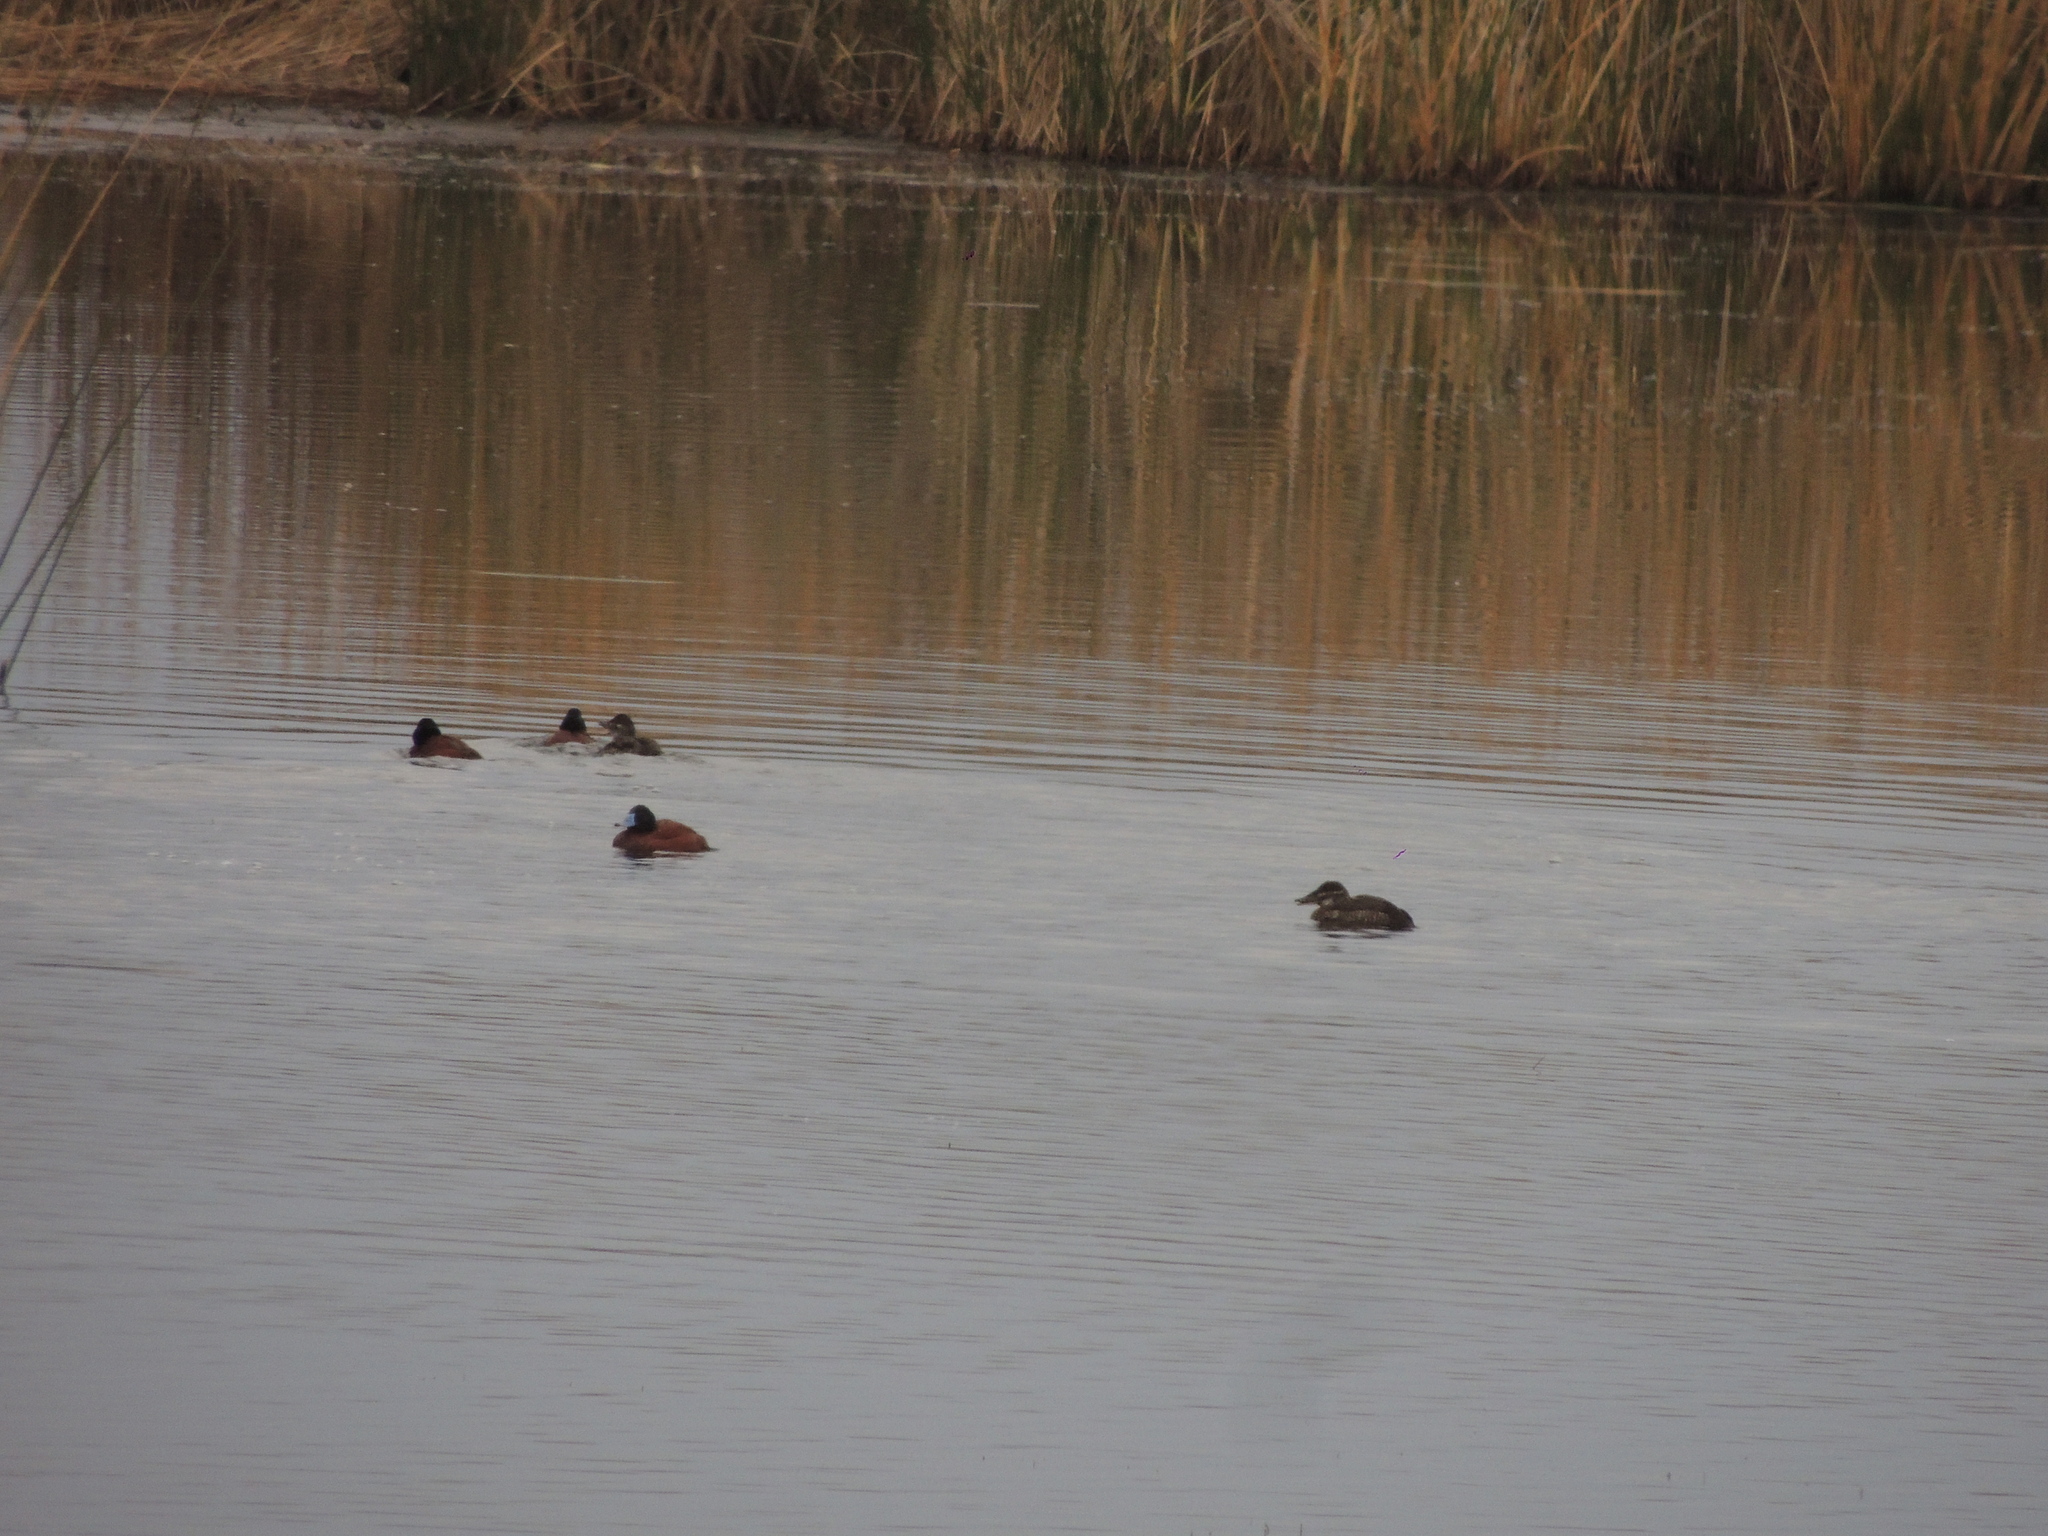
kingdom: Animalia
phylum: Chordata
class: Aves
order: Anseriformes
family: Anatidae
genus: Oxyura
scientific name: Oxyura vittata
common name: Lake duck
